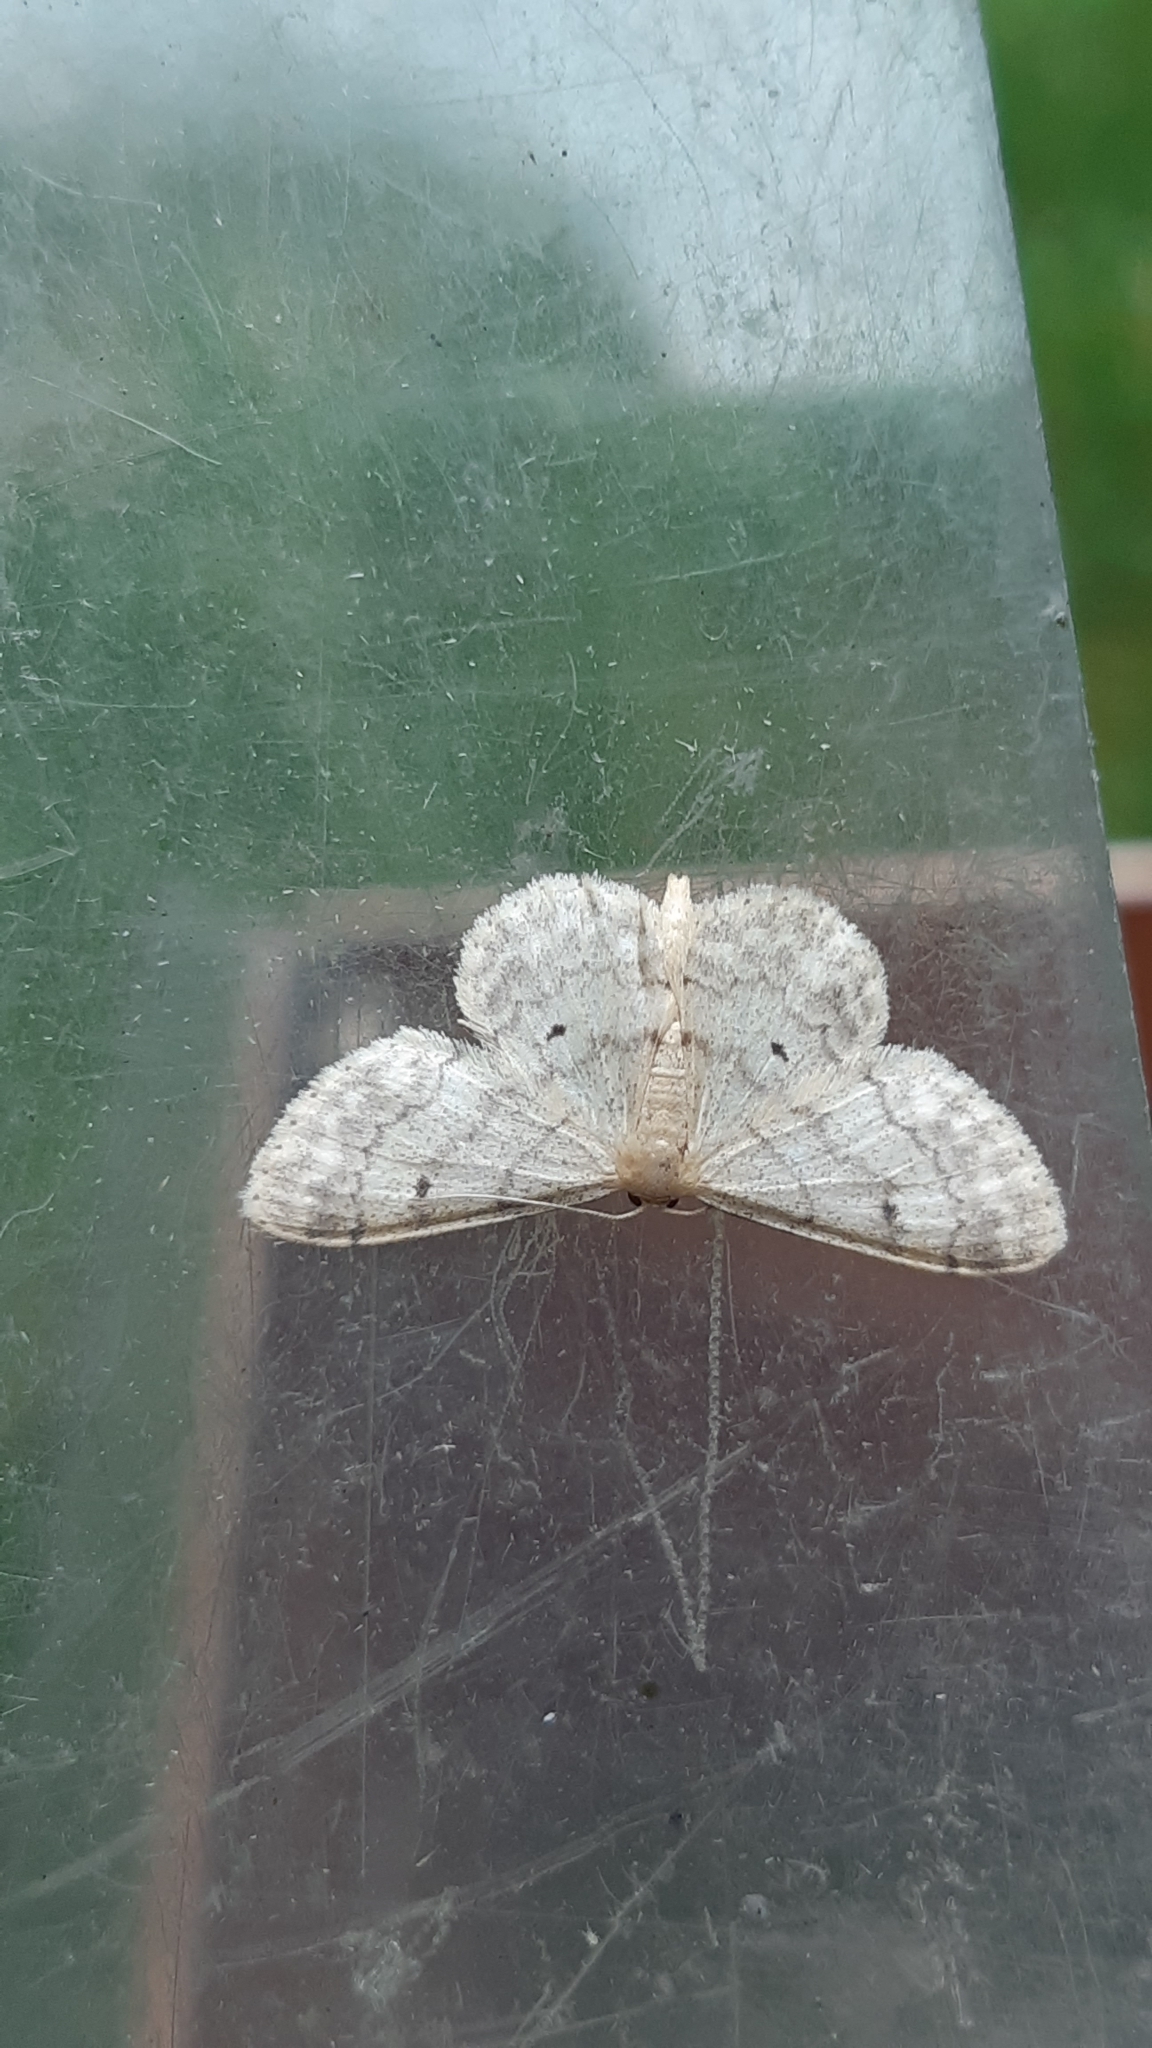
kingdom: Animalia
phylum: Arthropoda
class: Insecta
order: Lepidoptera
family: Geometridae
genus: Idaea
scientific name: Idaea biselata
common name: Small fan-footed wave
